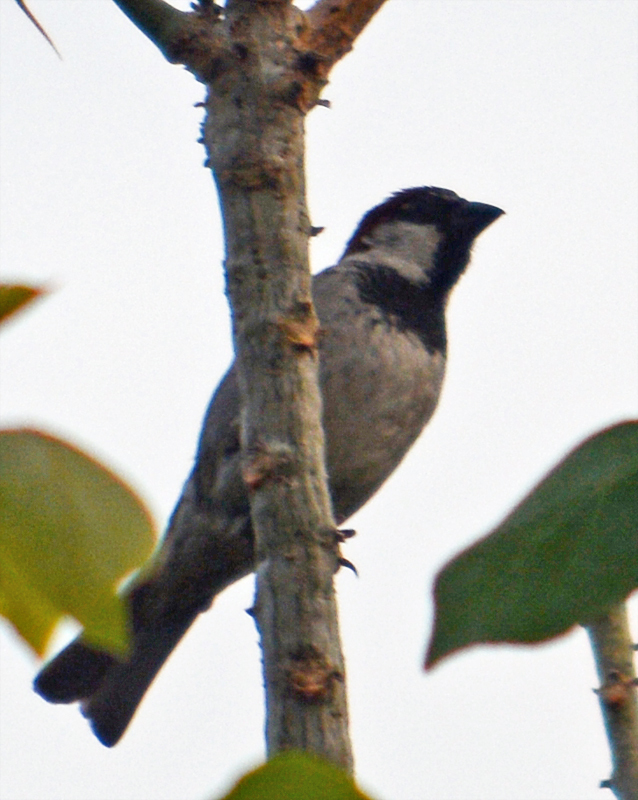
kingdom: Animalia
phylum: Chordata
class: Aves
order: Passeriformes
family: Passeridae
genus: Passer
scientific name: Passer domesticus
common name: House sparrow
